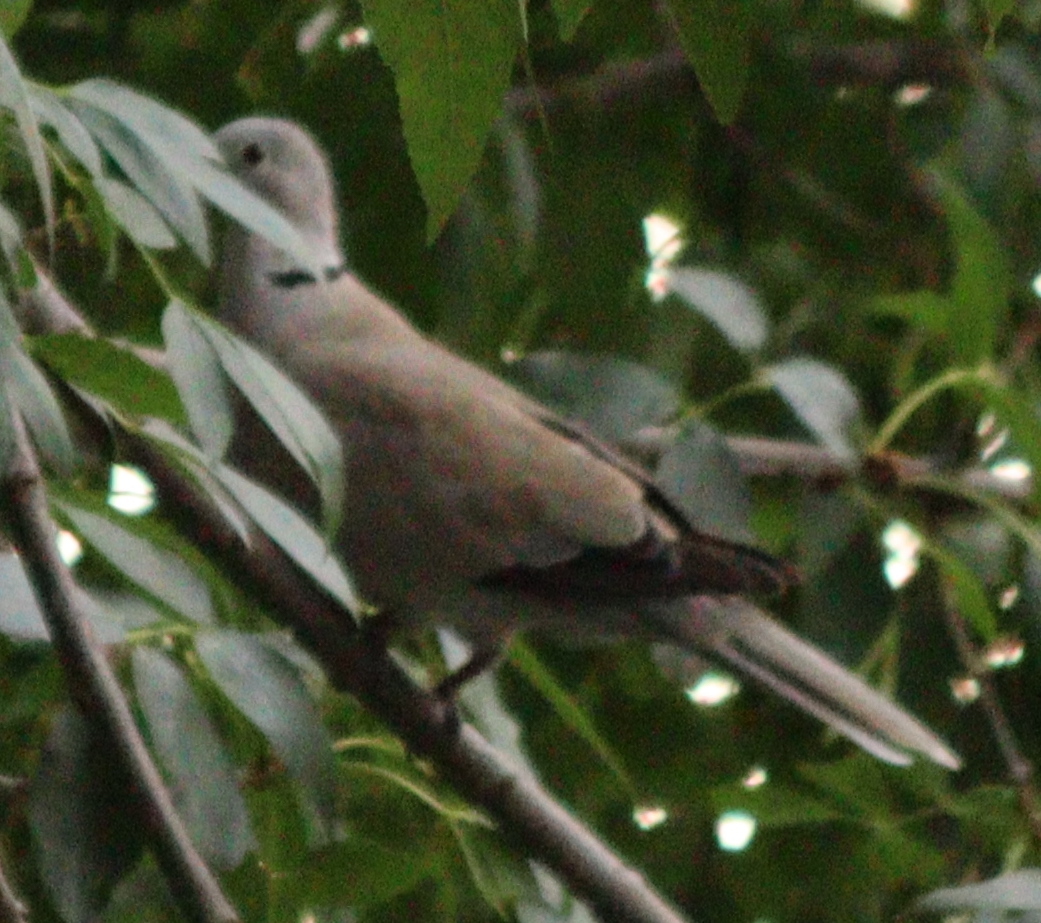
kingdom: Animalia
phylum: Chordata
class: Aves
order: Columbiformes
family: Columbidae
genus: Streptopelia
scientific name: Streptopelia decaocto
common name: Eurasian collared dove
